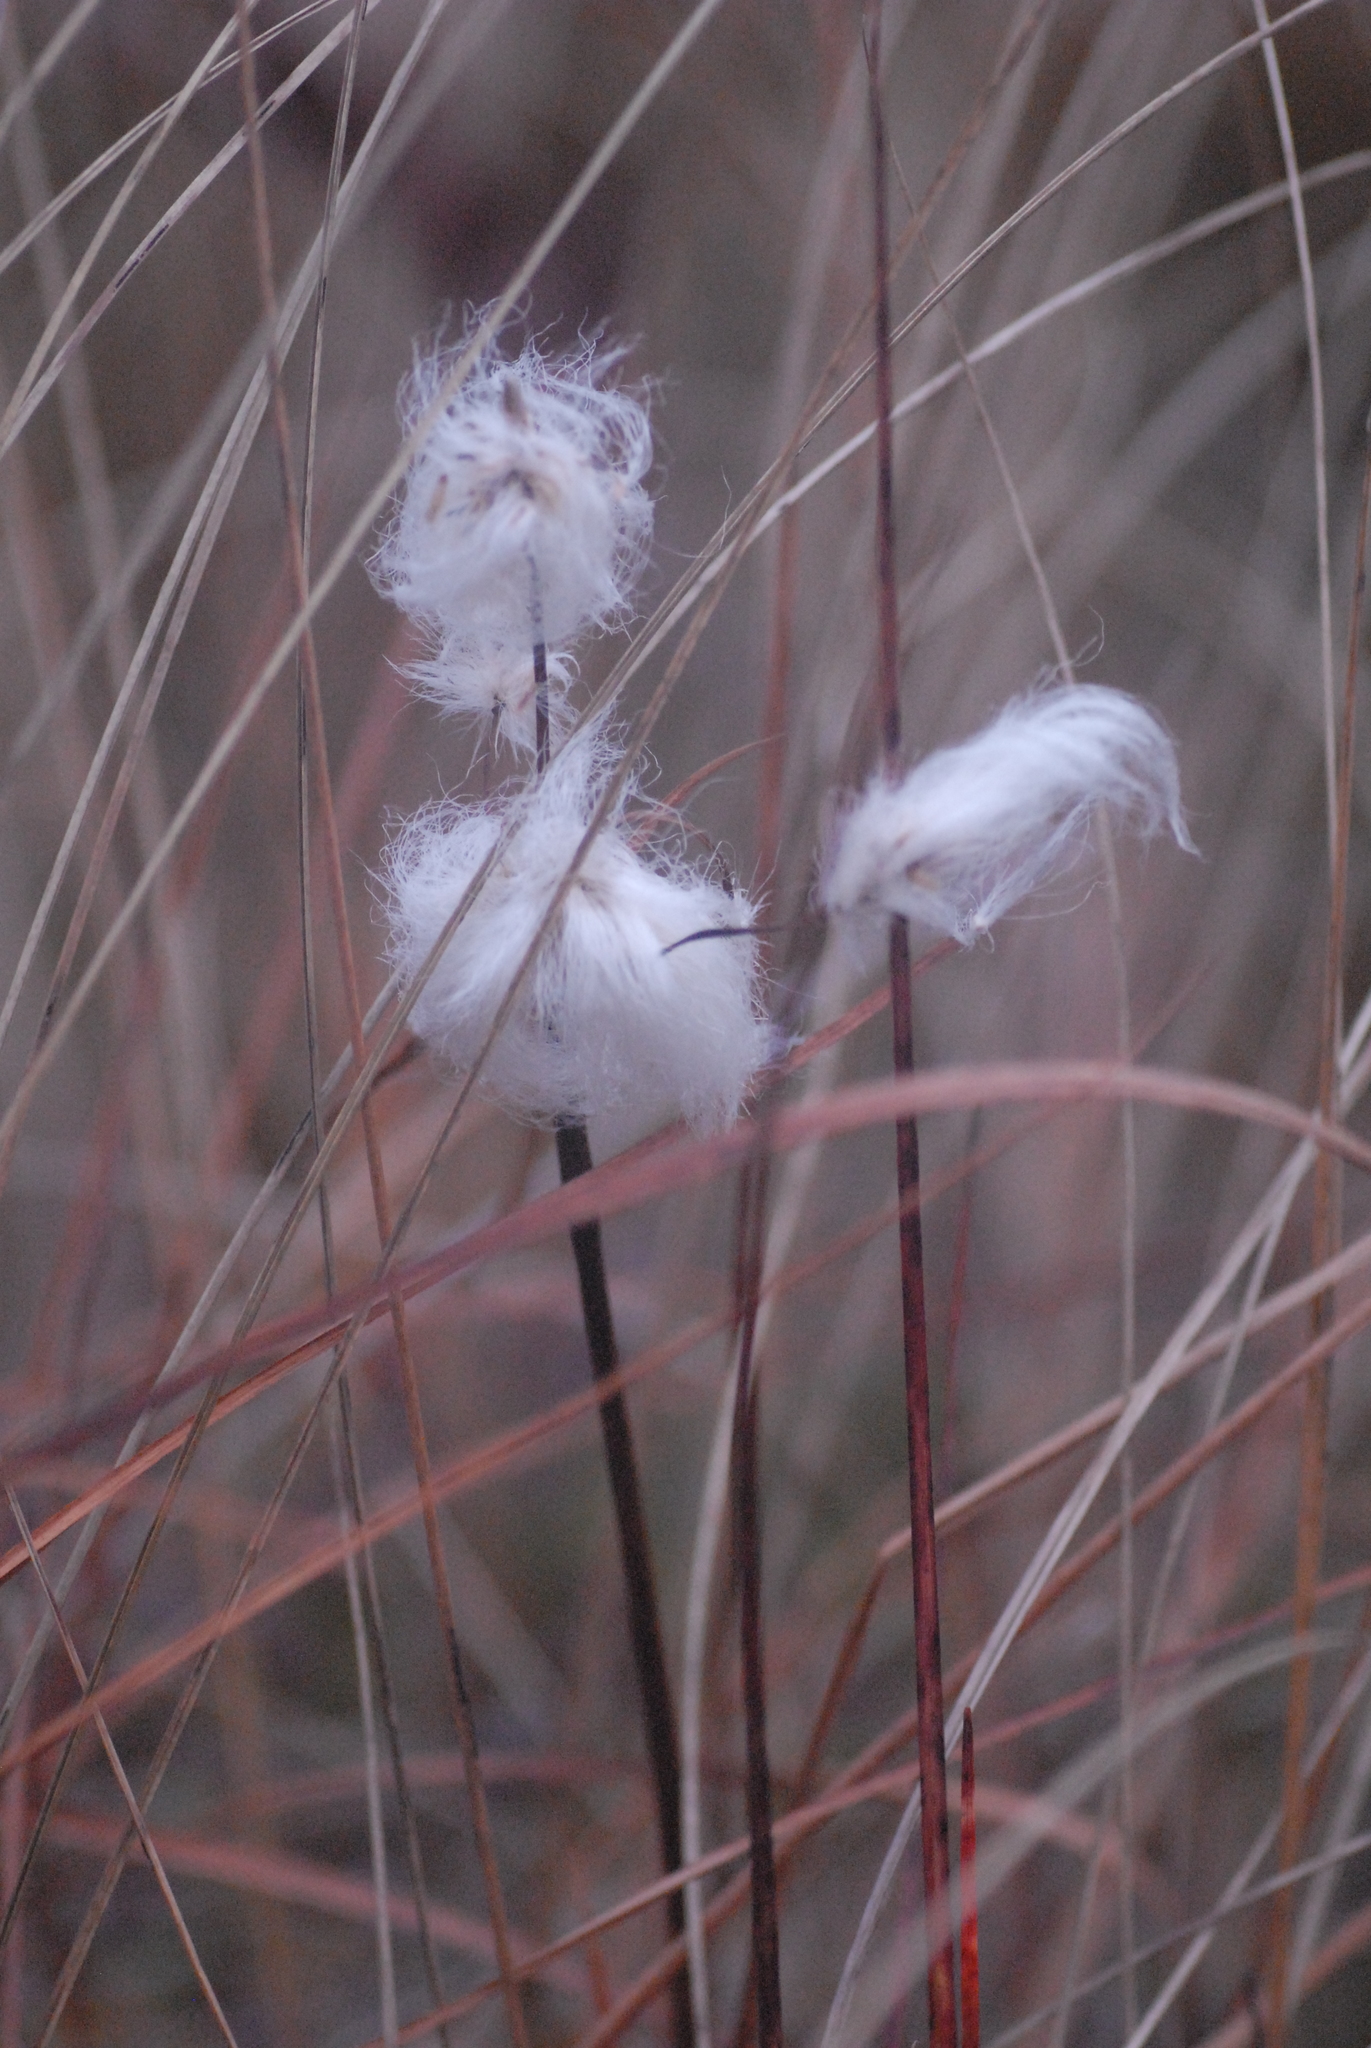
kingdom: Plantae
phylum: Tracheophyta
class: Liliopsida
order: Poales
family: Cyperaceae
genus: Eriophorum
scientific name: Eriophorum angustifolium
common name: Common cottongrass
